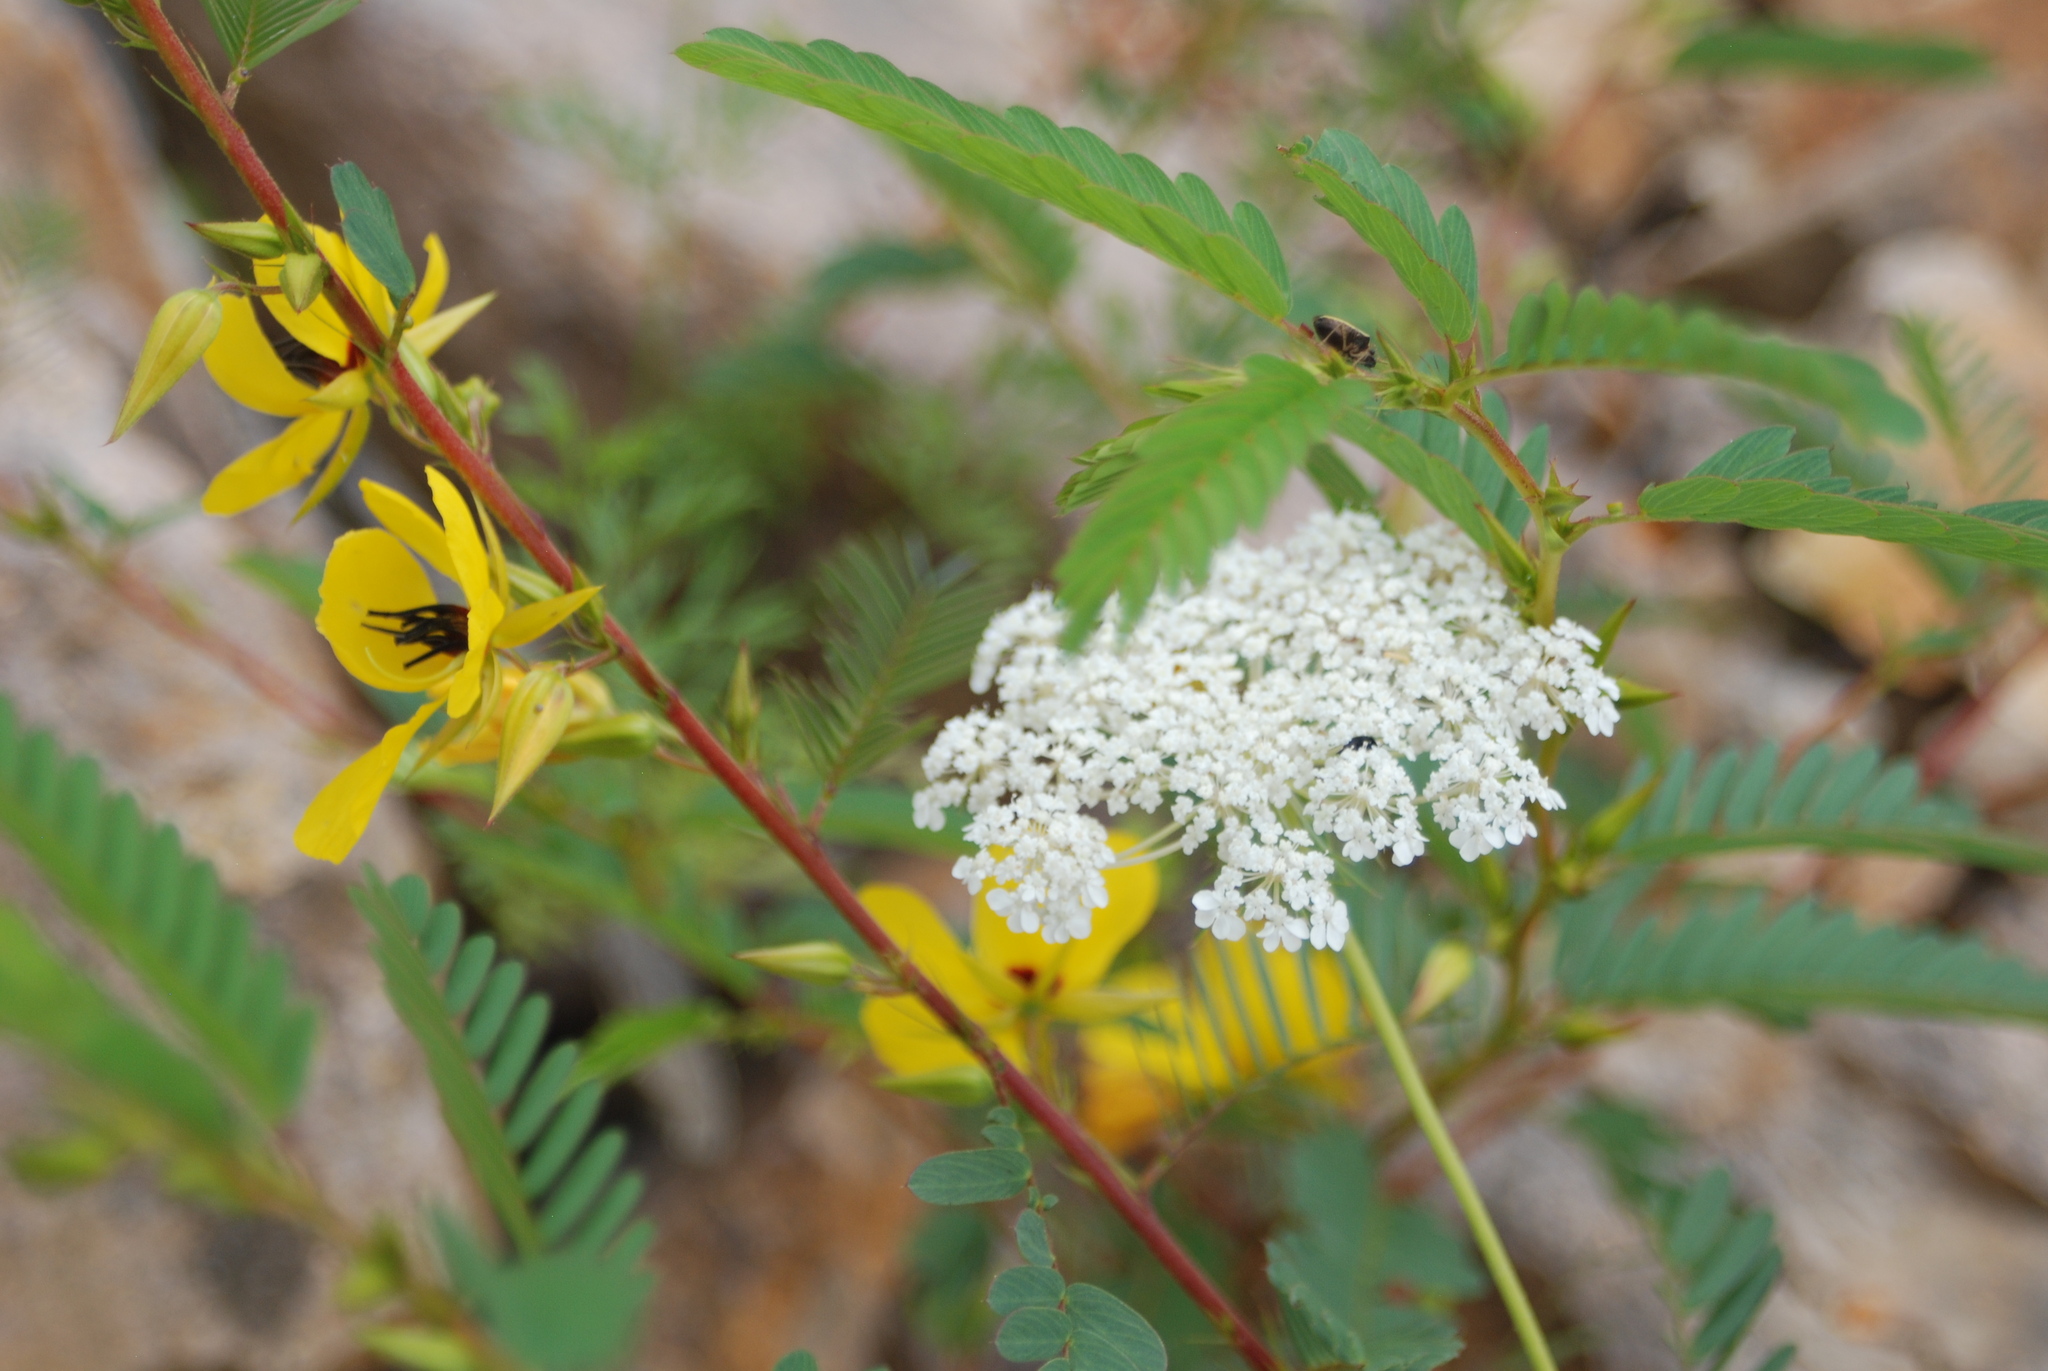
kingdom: Plantae
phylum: Tracheophyta
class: Magnoliopsida
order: Apiales
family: Apiaceae
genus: Daucus
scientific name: Daucus carota
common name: Wild carrot
